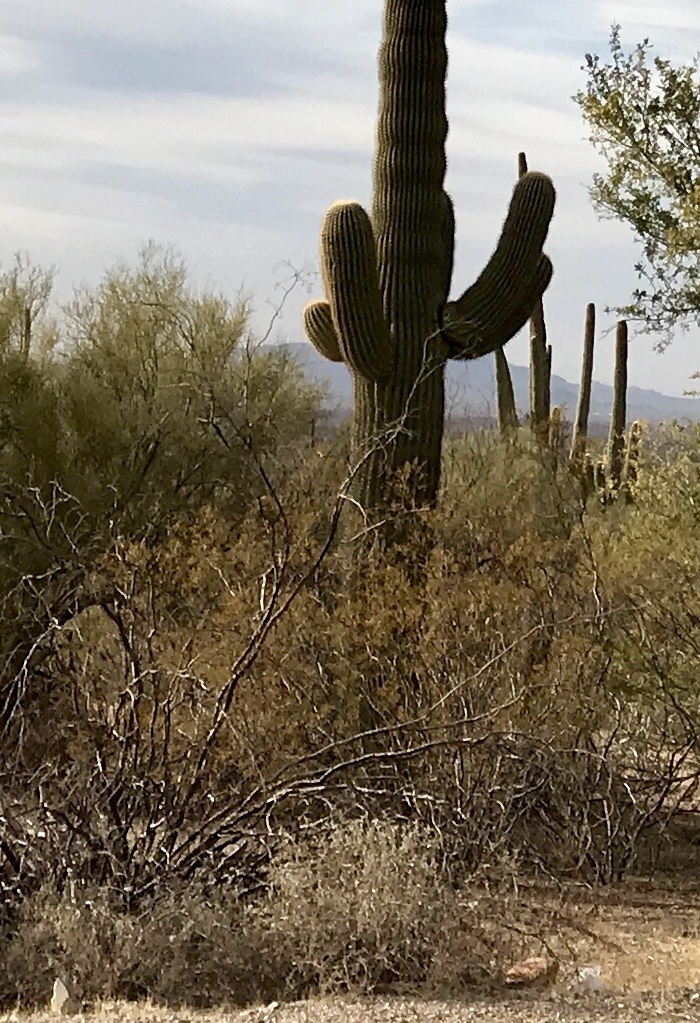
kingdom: Plantae
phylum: Tracheophyta
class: Magnoliopsida
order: Zygophyllales
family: Zygophyllaceae
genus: Larrea
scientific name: Larrea tridentata
